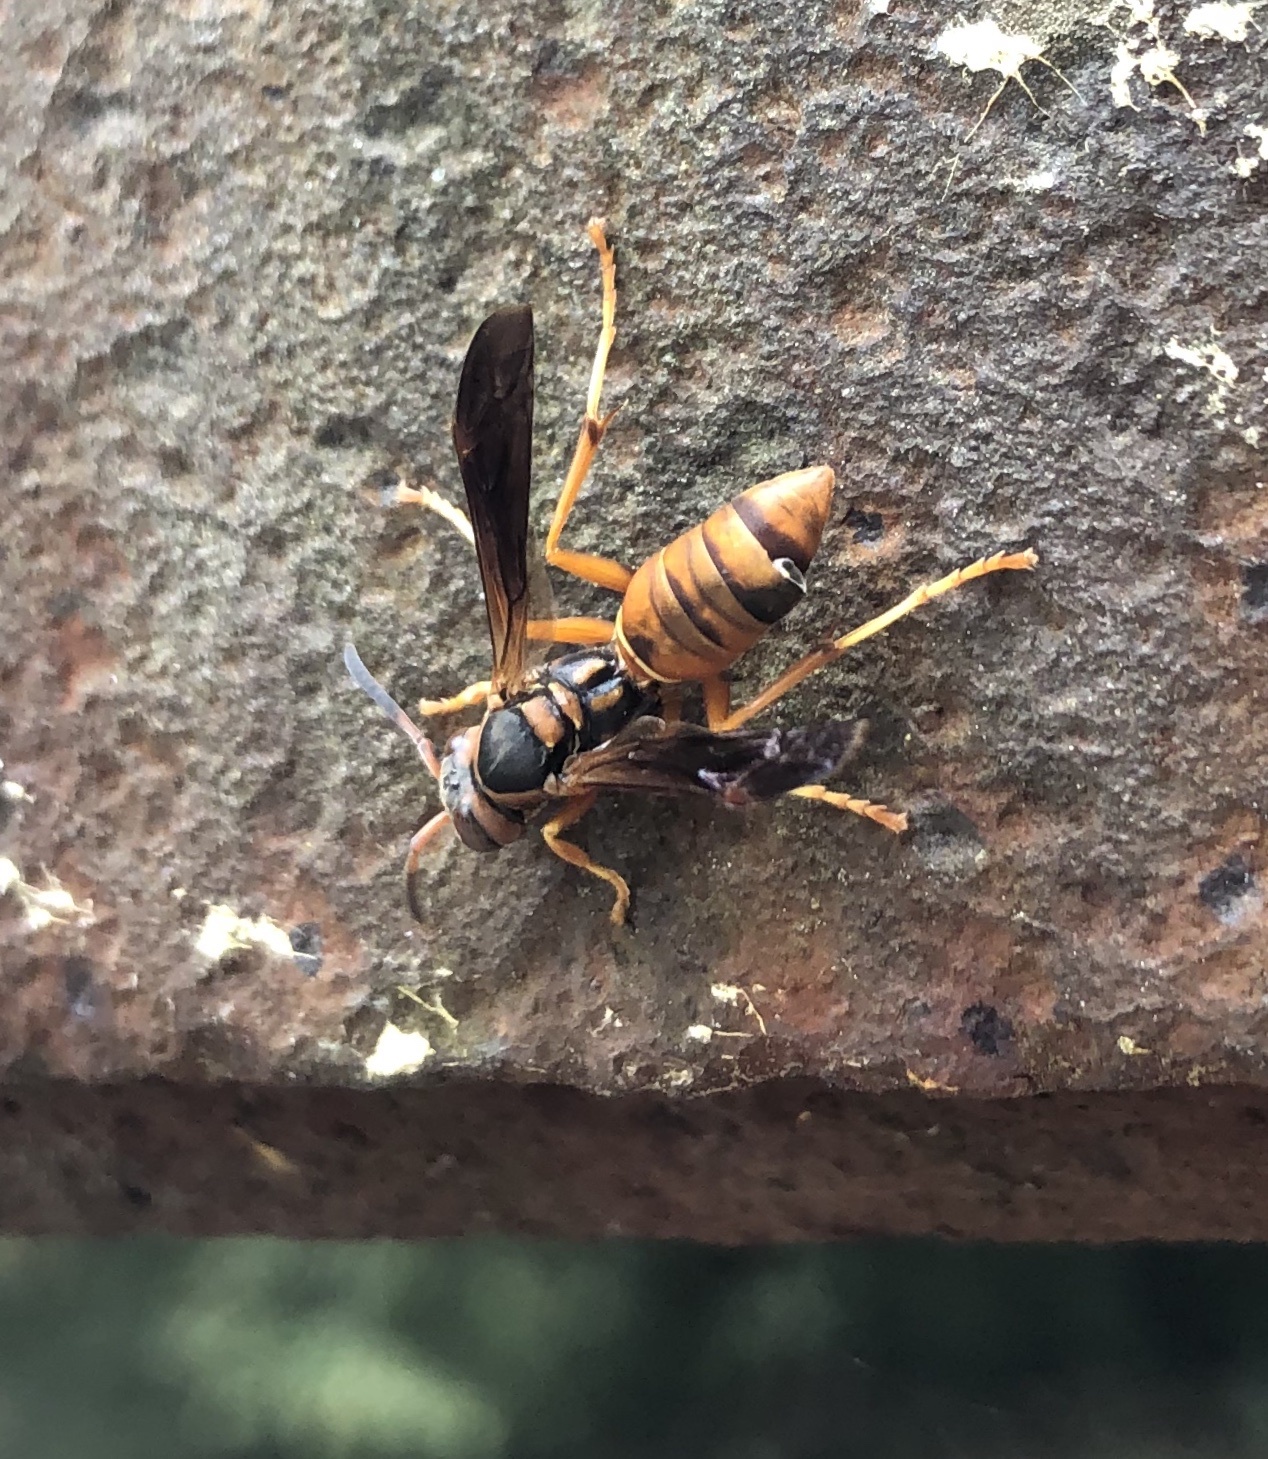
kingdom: Animalia
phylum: Arthropoda
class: Insecta
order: Strepsiptera
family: Xenidae
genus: Xenos
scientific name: Xenos pecki
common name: Twisted wing parasite
